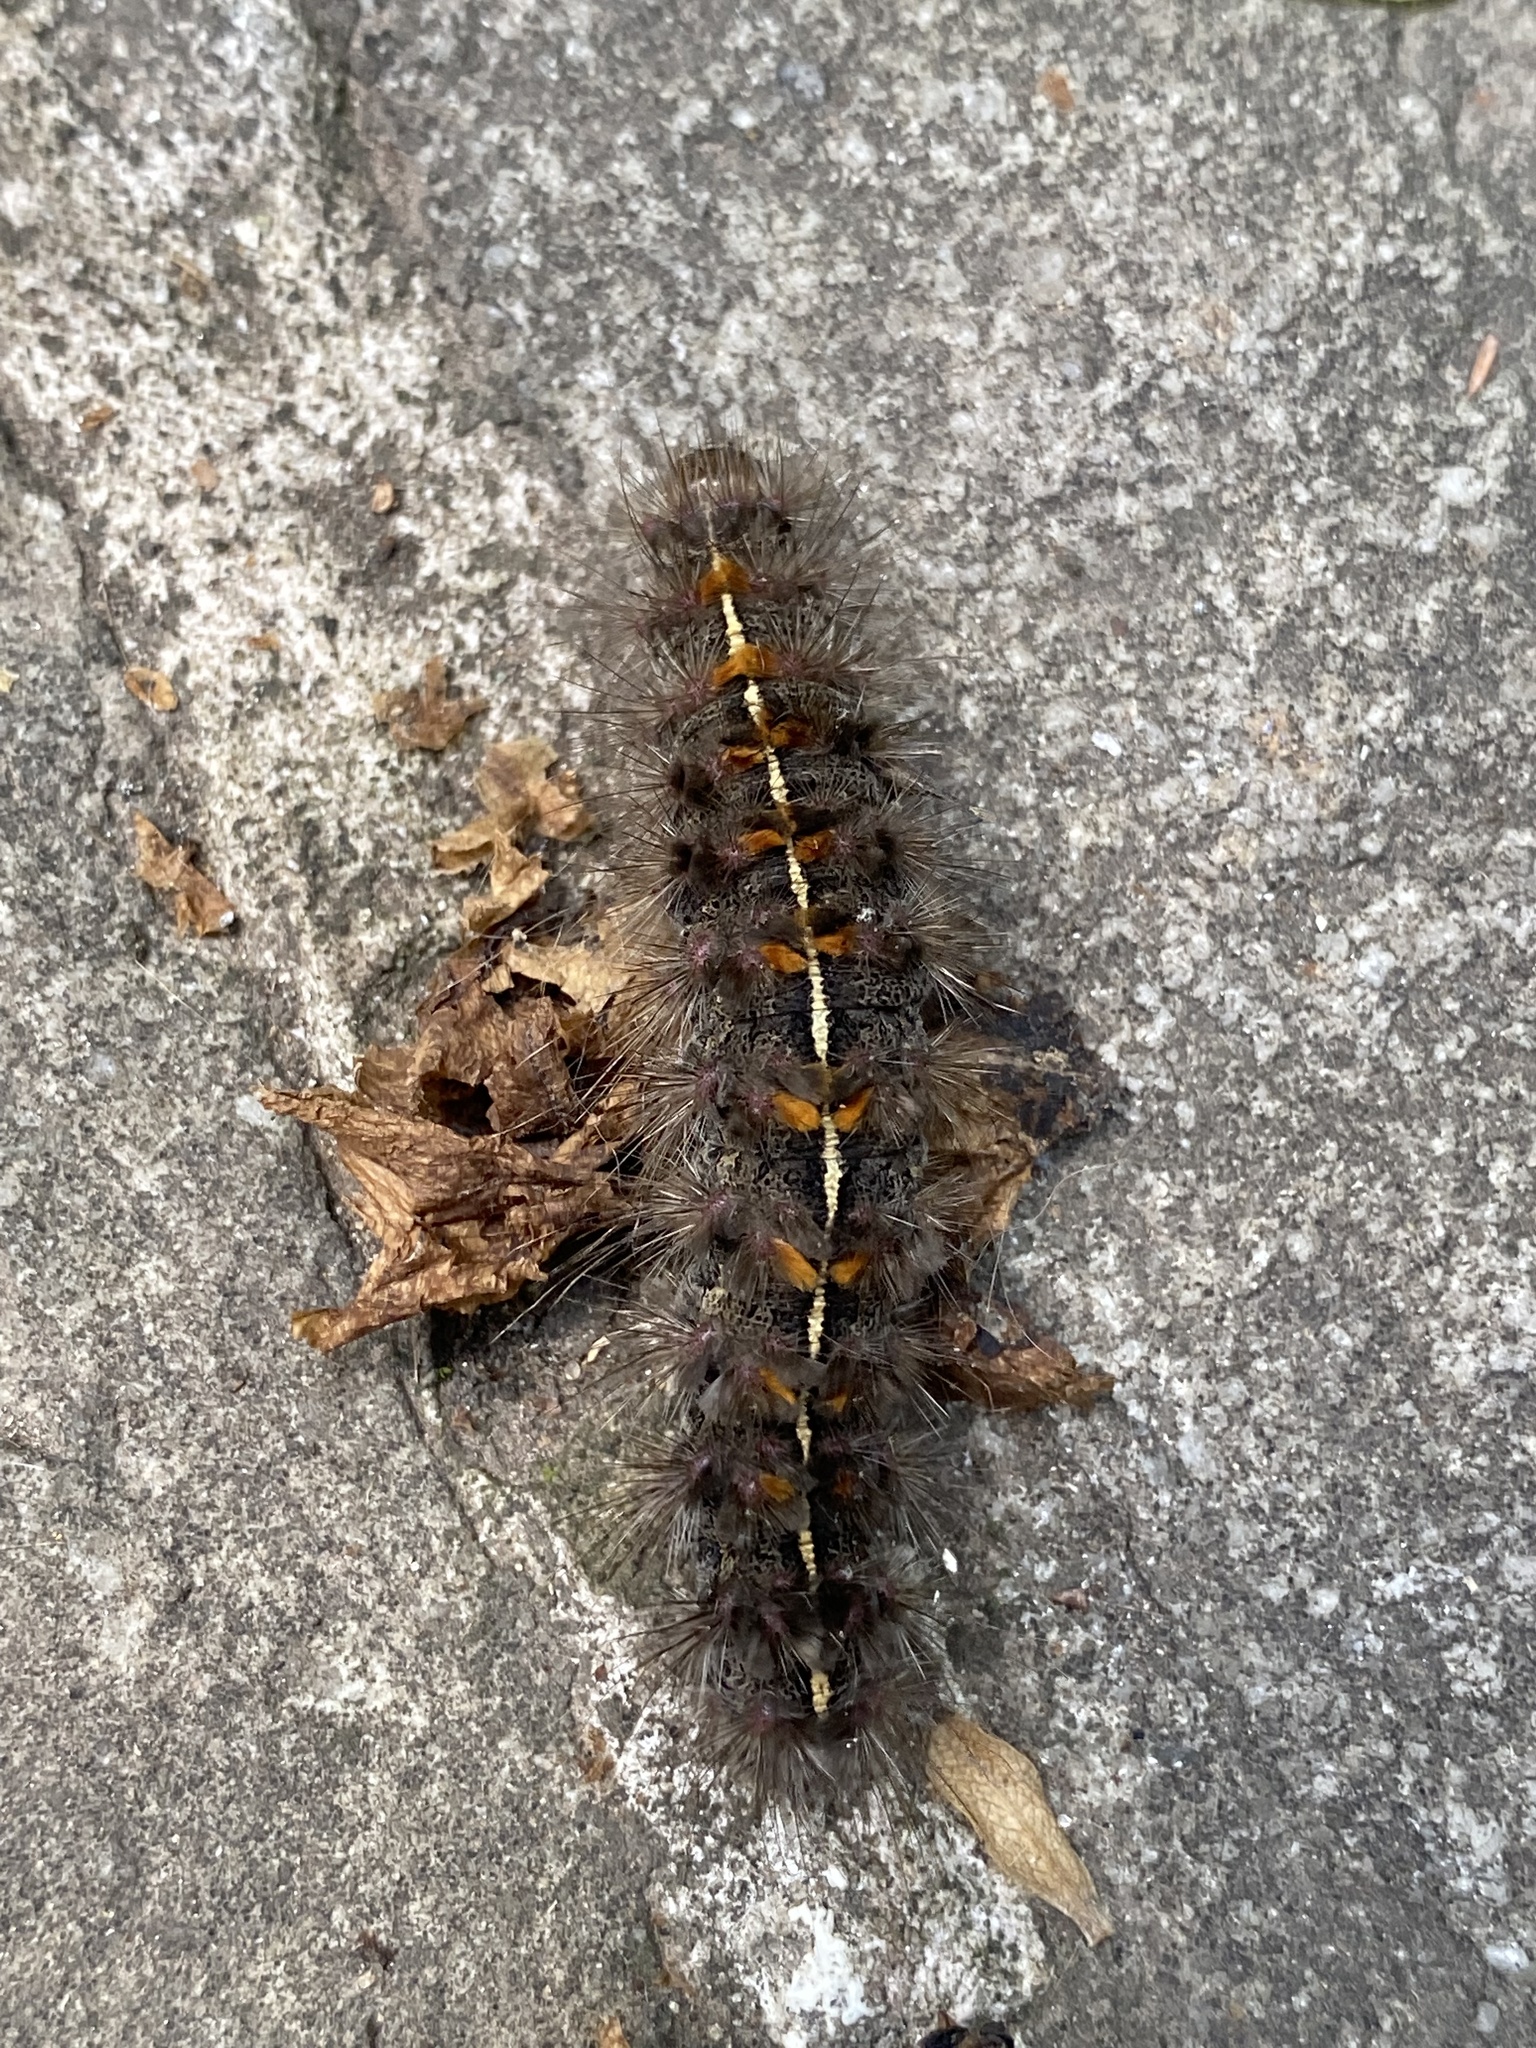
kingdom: Animalia
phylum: Arthropoda
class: Insecta
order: Lepidoptera
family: Erebidae
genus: Paracles
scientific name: Paracles fusca
